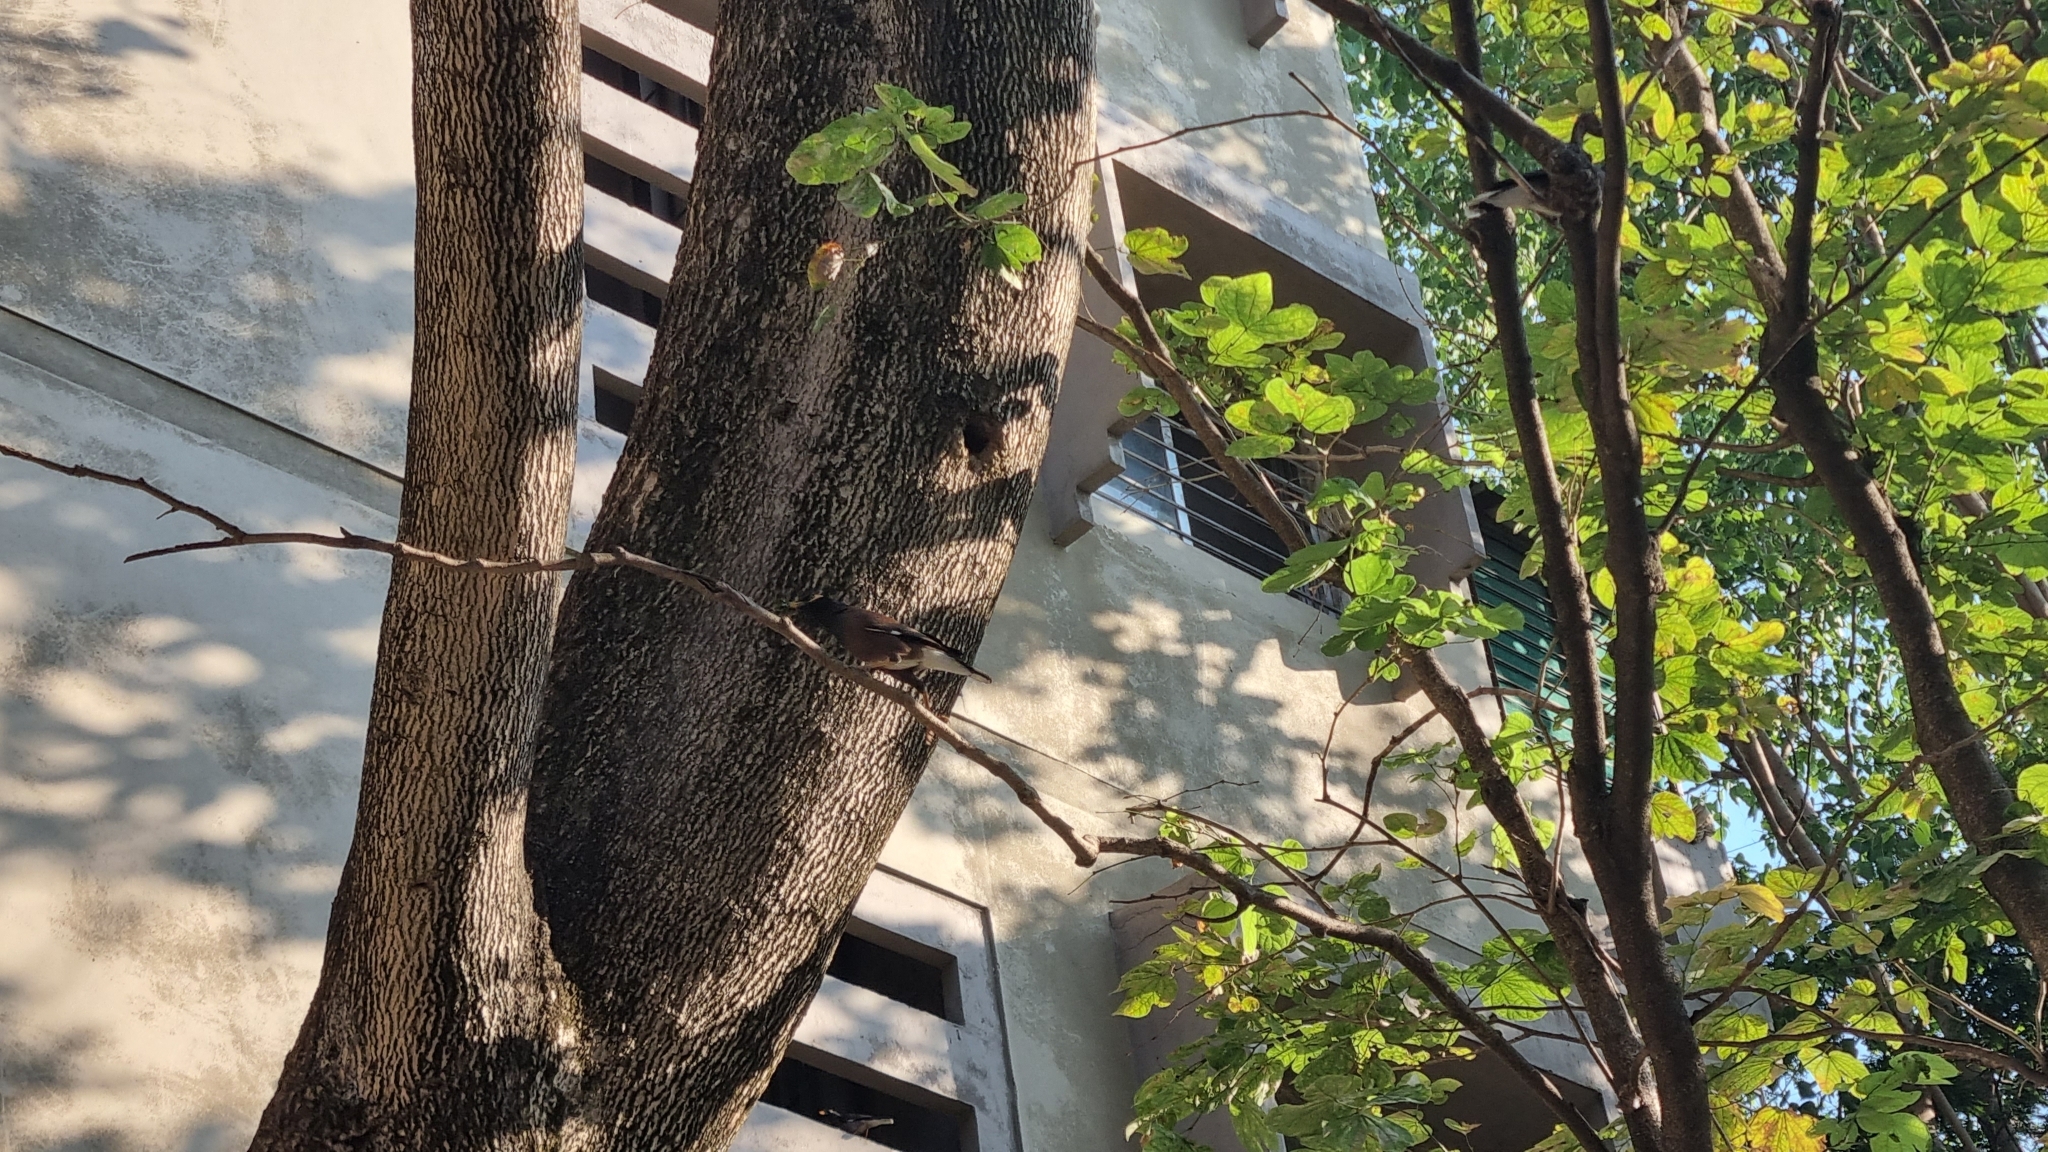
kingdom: Animalia
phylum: Chordata
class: Aves
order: Passeriformes
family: Sturnidae
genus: Acridotheres
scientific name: Acridotheres tristis
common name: Common myna
